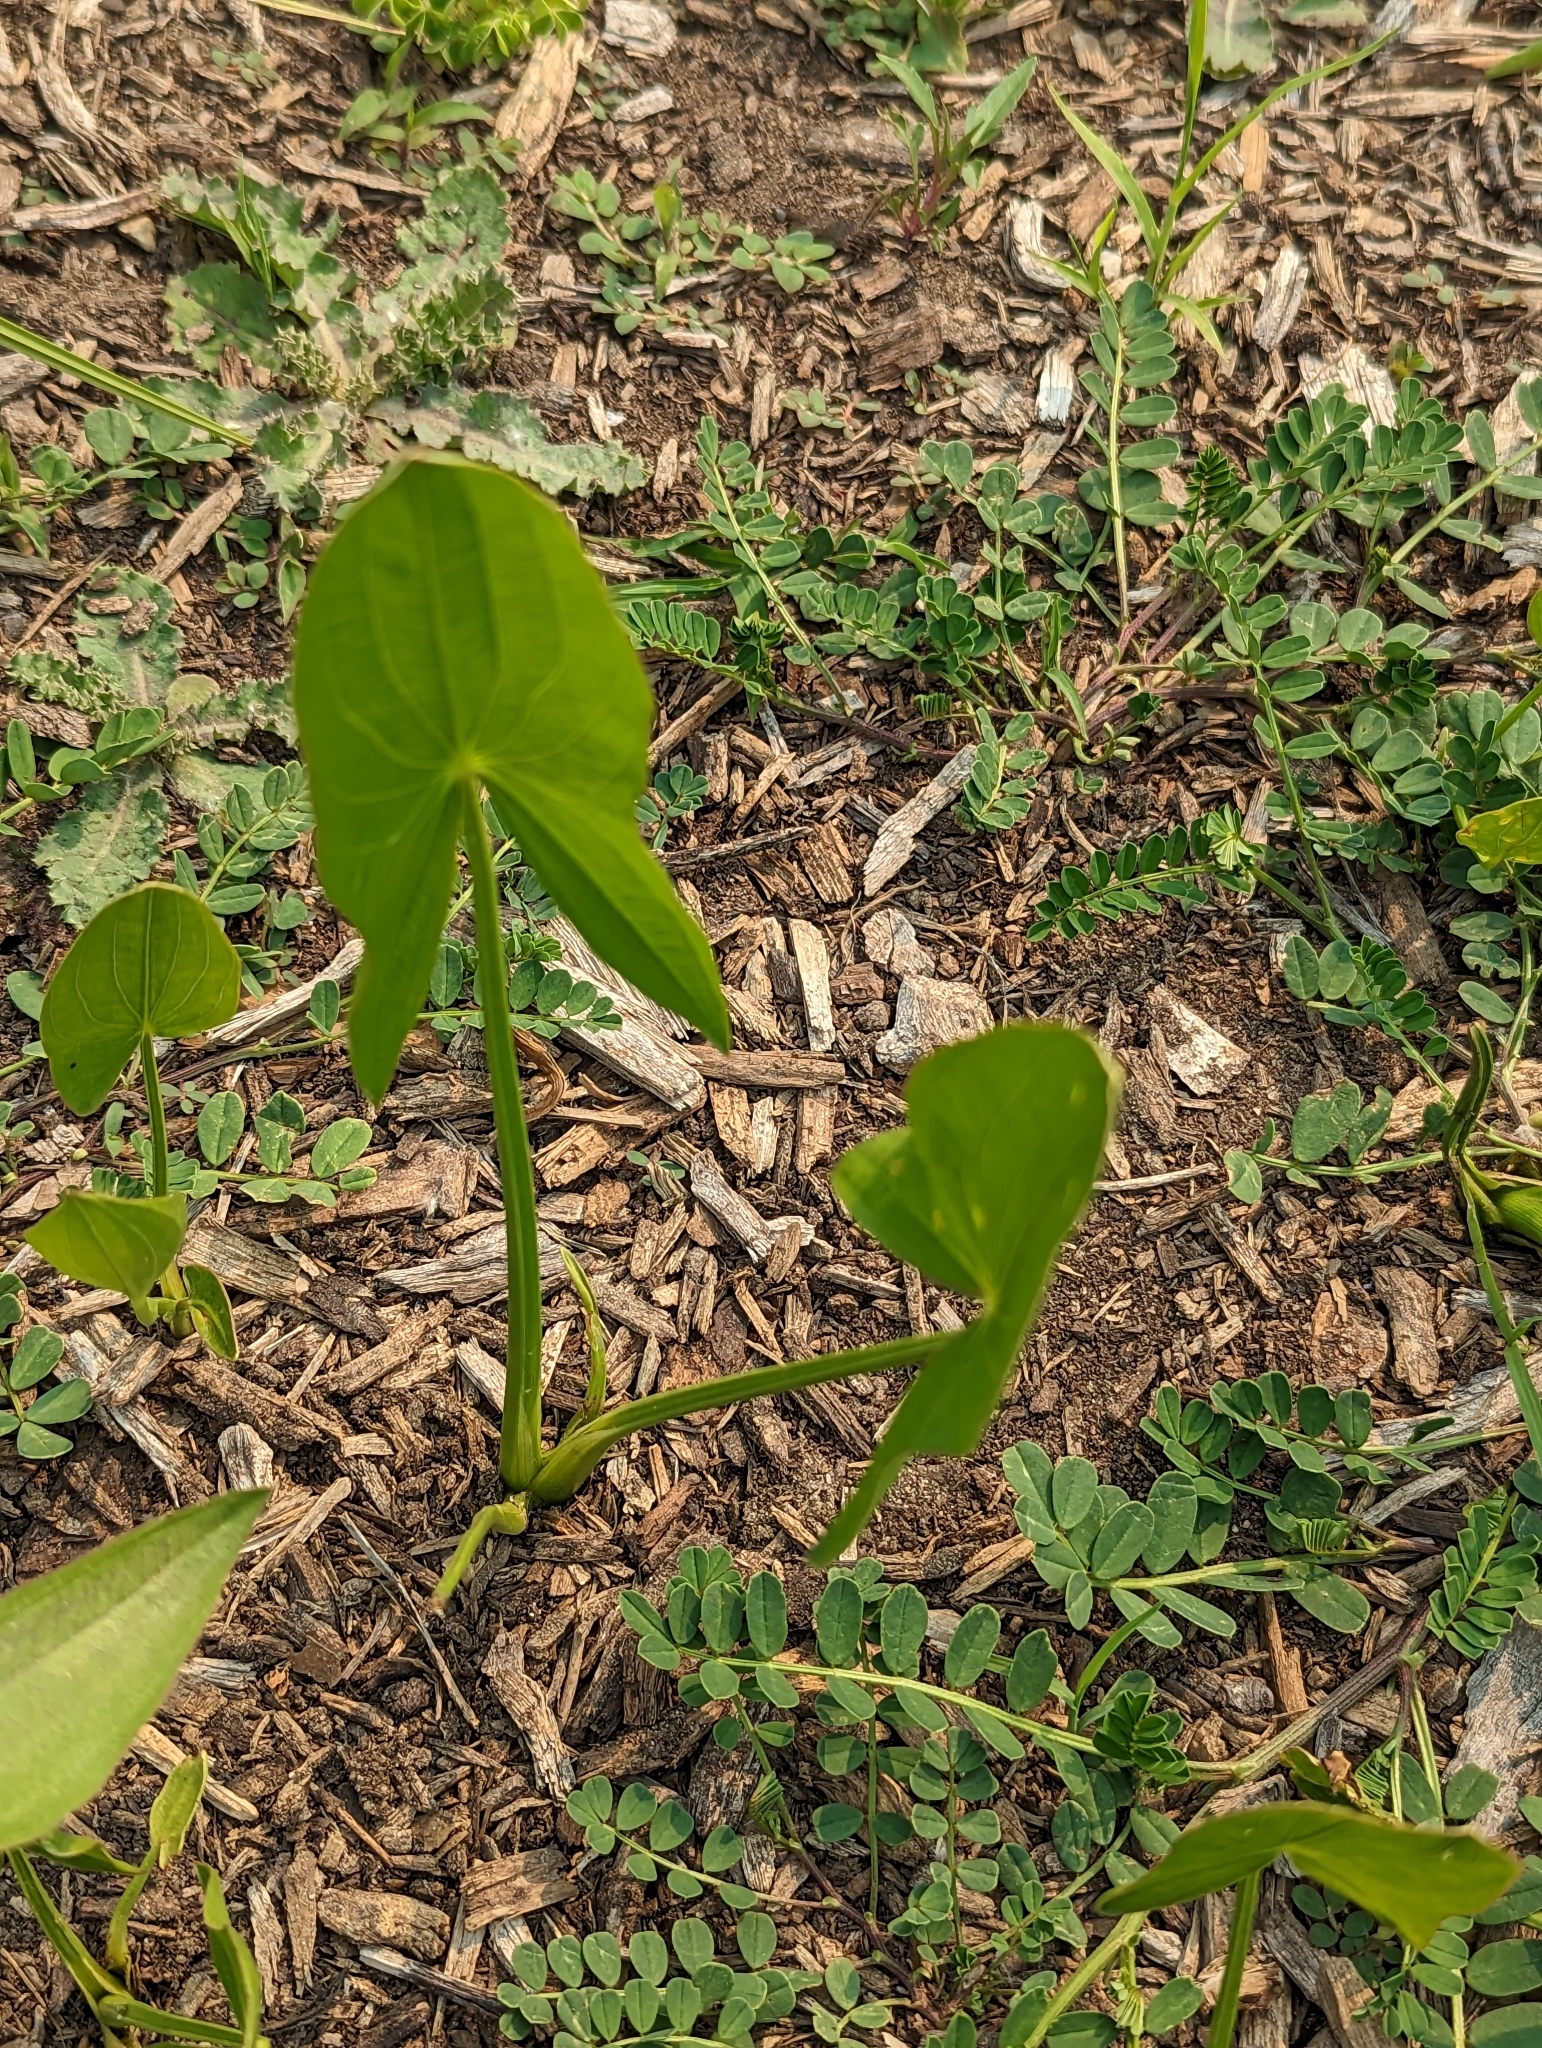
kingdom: Plantae
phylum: Tracheophyta
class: Liliopsida
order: Alismatales
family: Alismataceae
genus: Sagittaria
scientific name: Sagittaria latifolia
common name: Duck-potato
